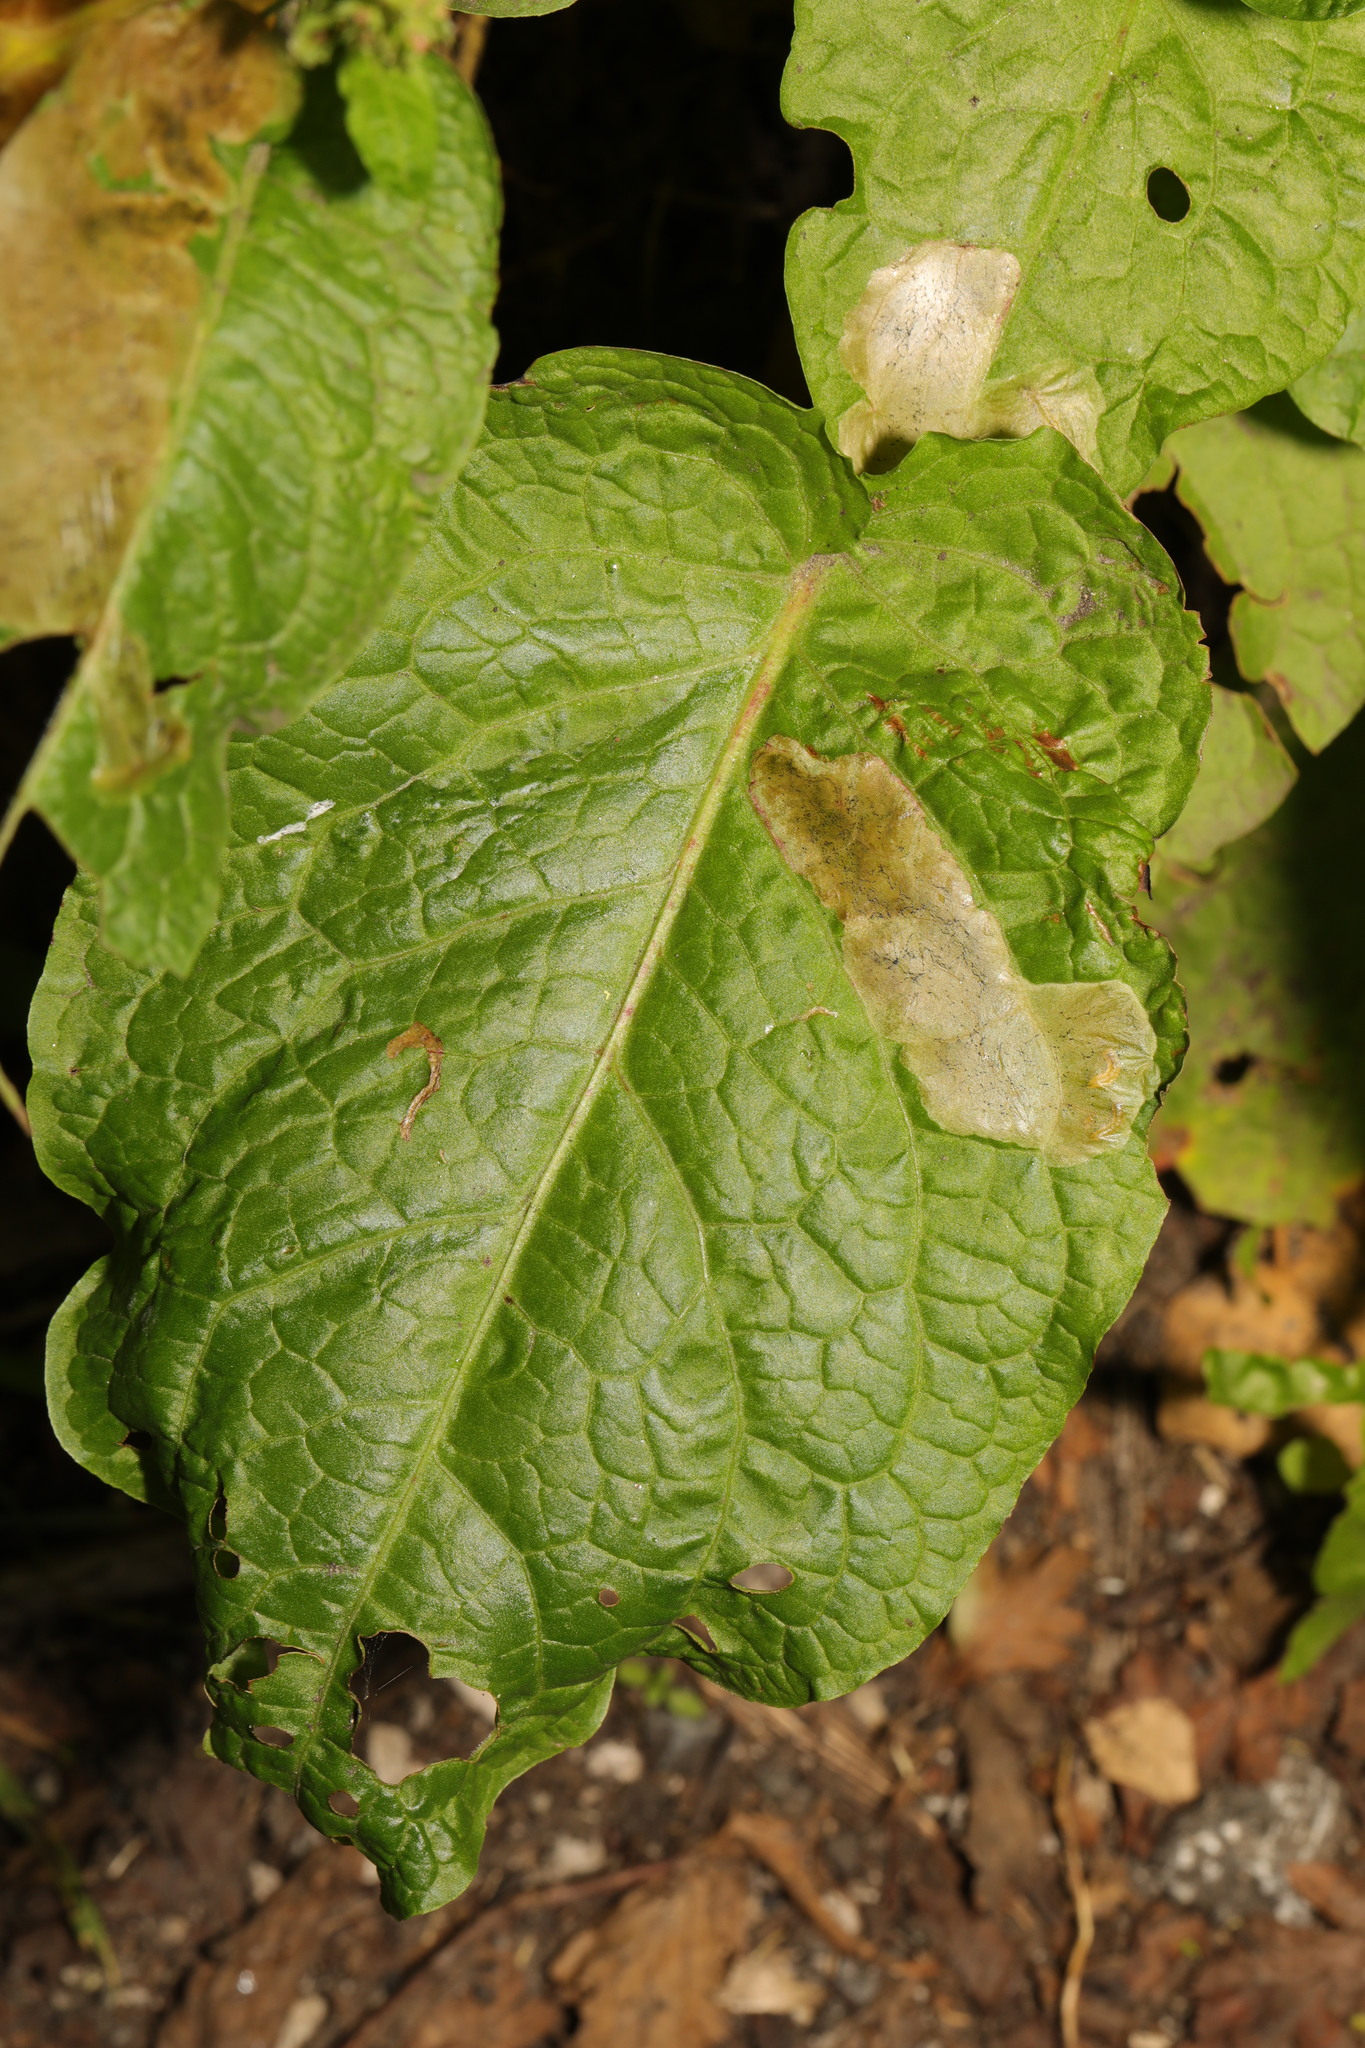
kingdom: Plantae
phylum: Tracheophyta
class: Magnoliopsida
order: Caryophyllales
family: Polygonaceae
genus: Rumex
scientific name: Rumex obtusifolius
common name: Bitter dock
